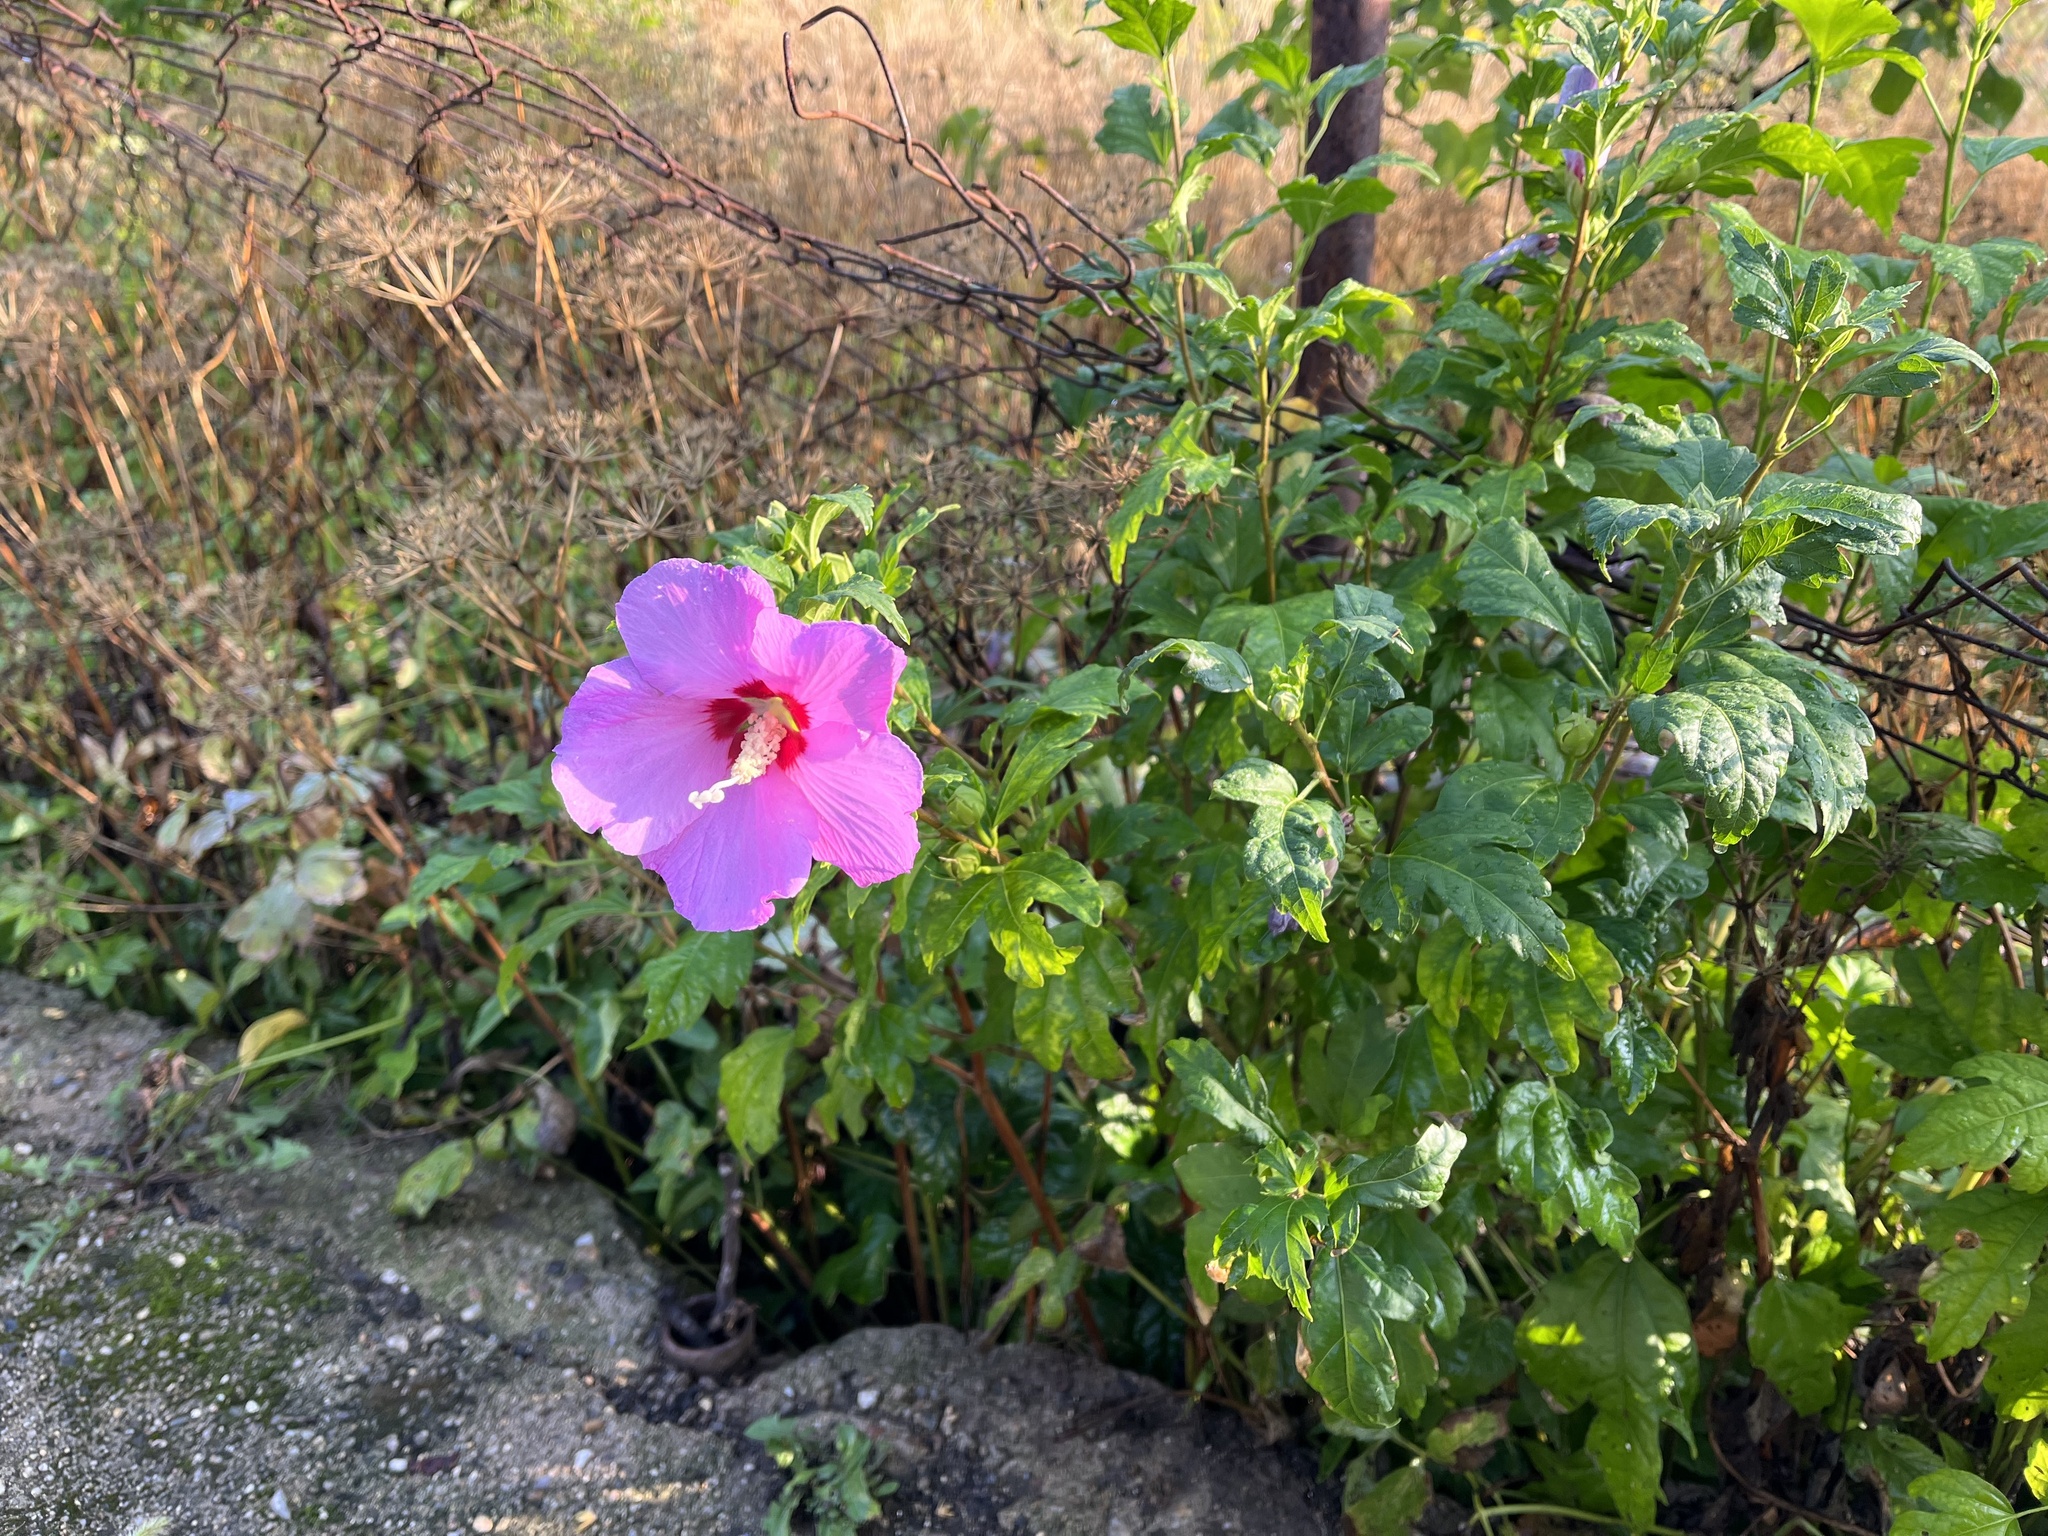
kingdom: Plantae
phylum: Tracheophyta
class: Magnoliopsida
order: Malvales
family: Malvaceae
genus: Hibiscus
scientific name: Hibiscus syriacus
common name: Syrian ketmia
